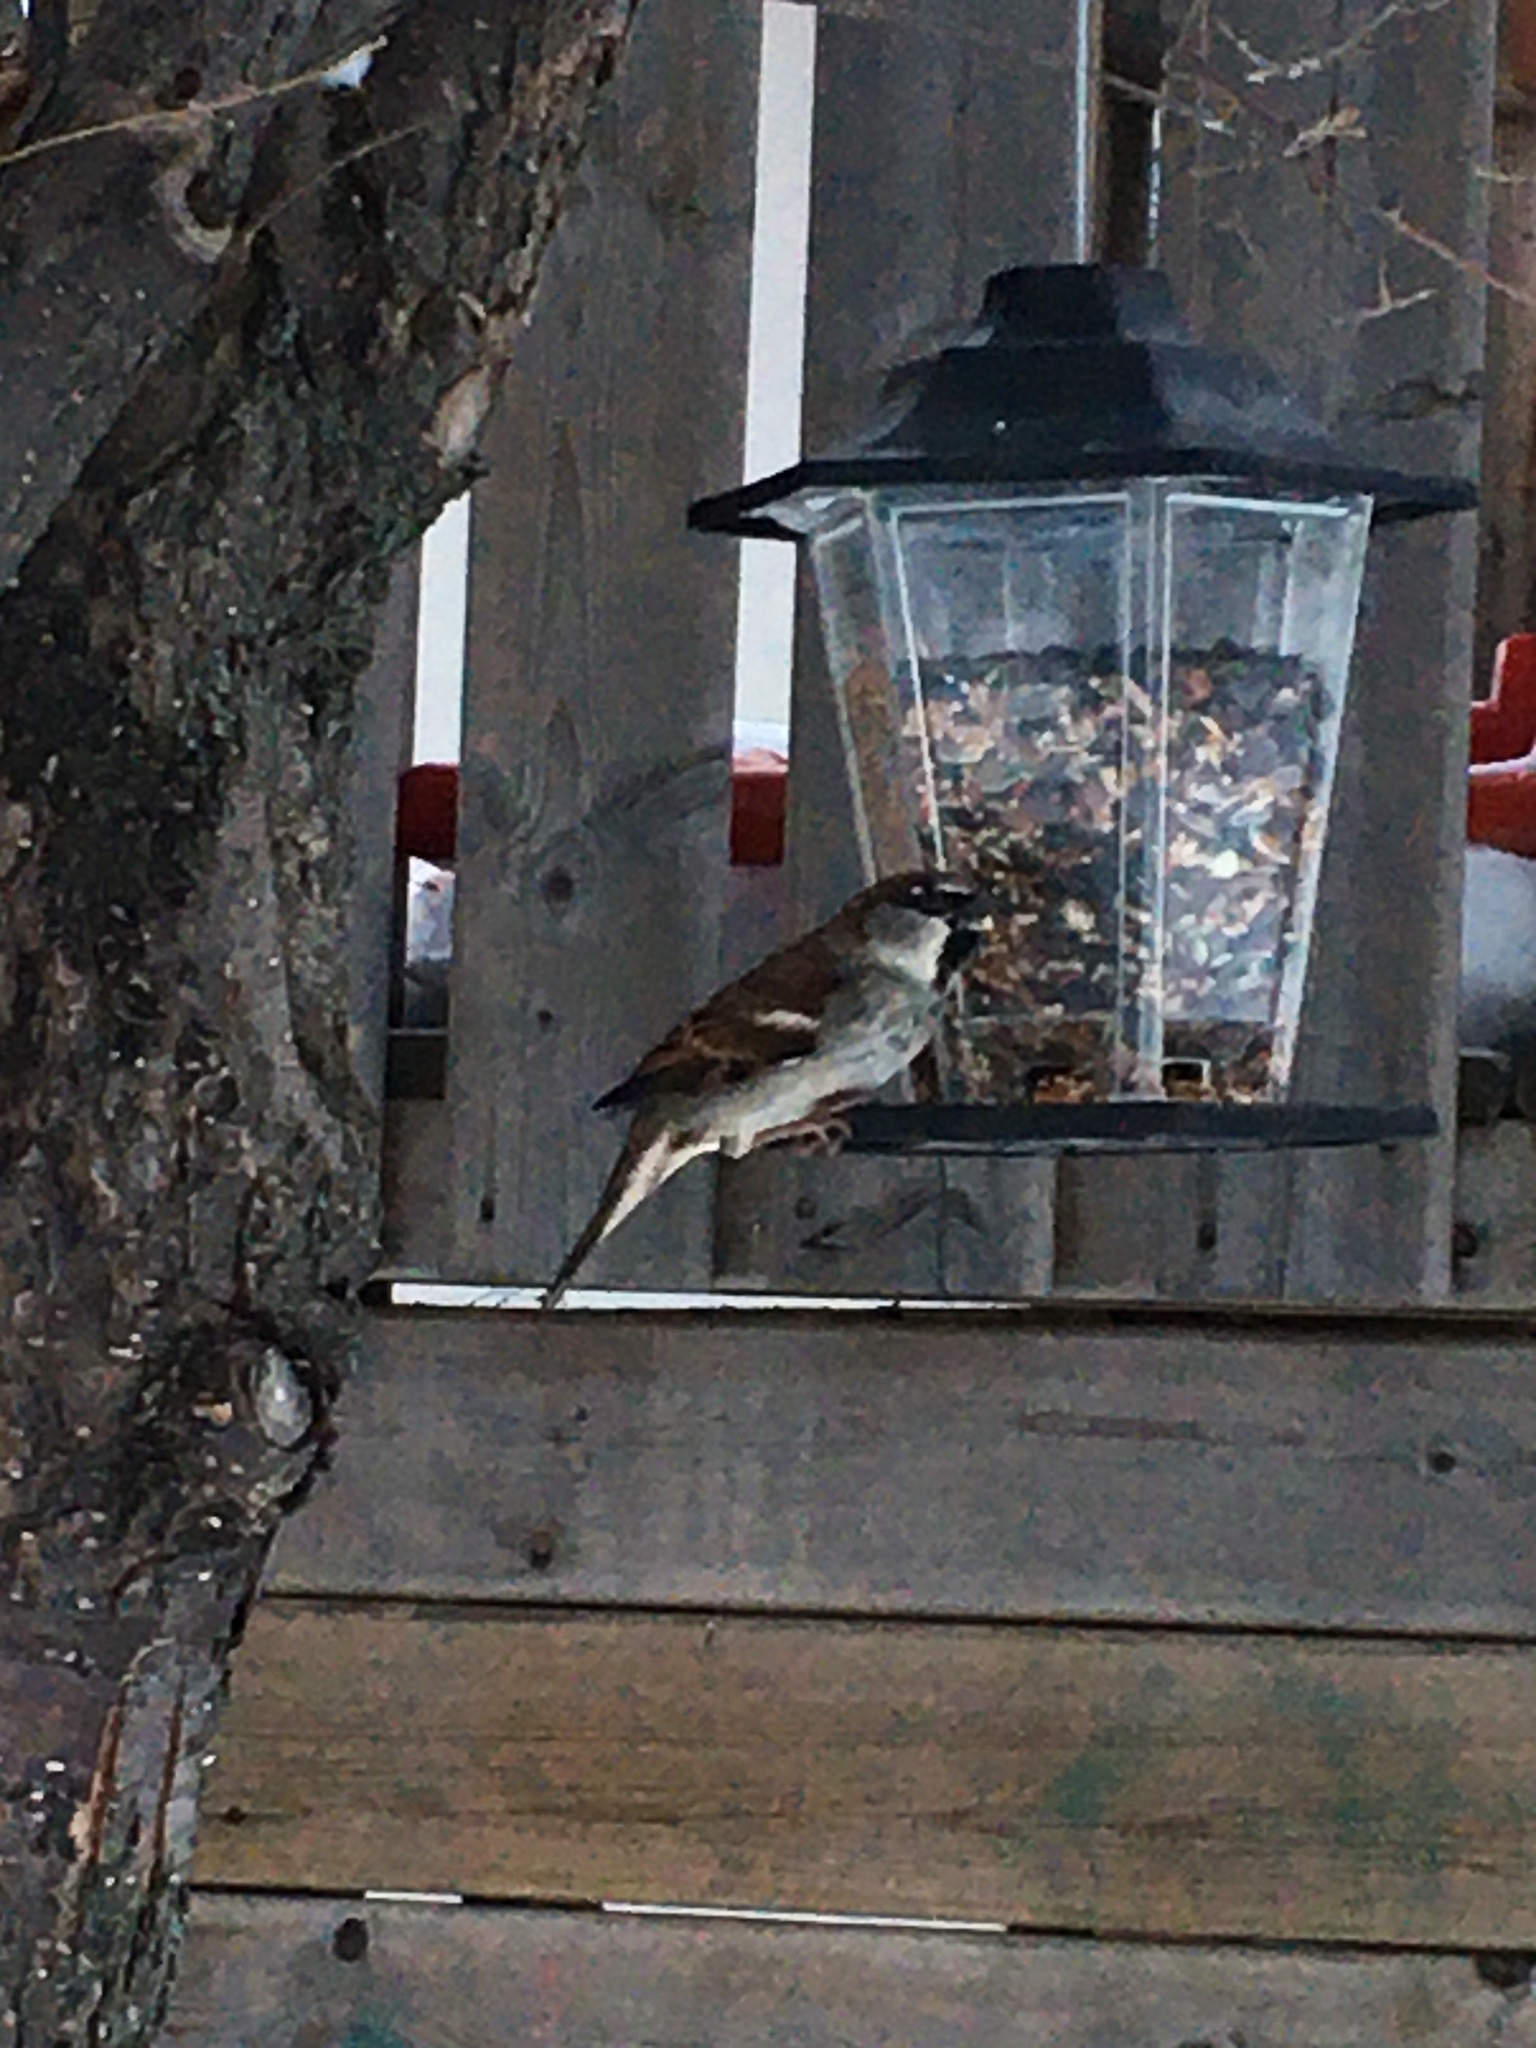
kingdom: Animalia
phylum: Chordata
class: Aves
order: Passeriformes
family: Passeridae
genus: Passer
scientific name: Passer domesticus
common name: House sparrow
